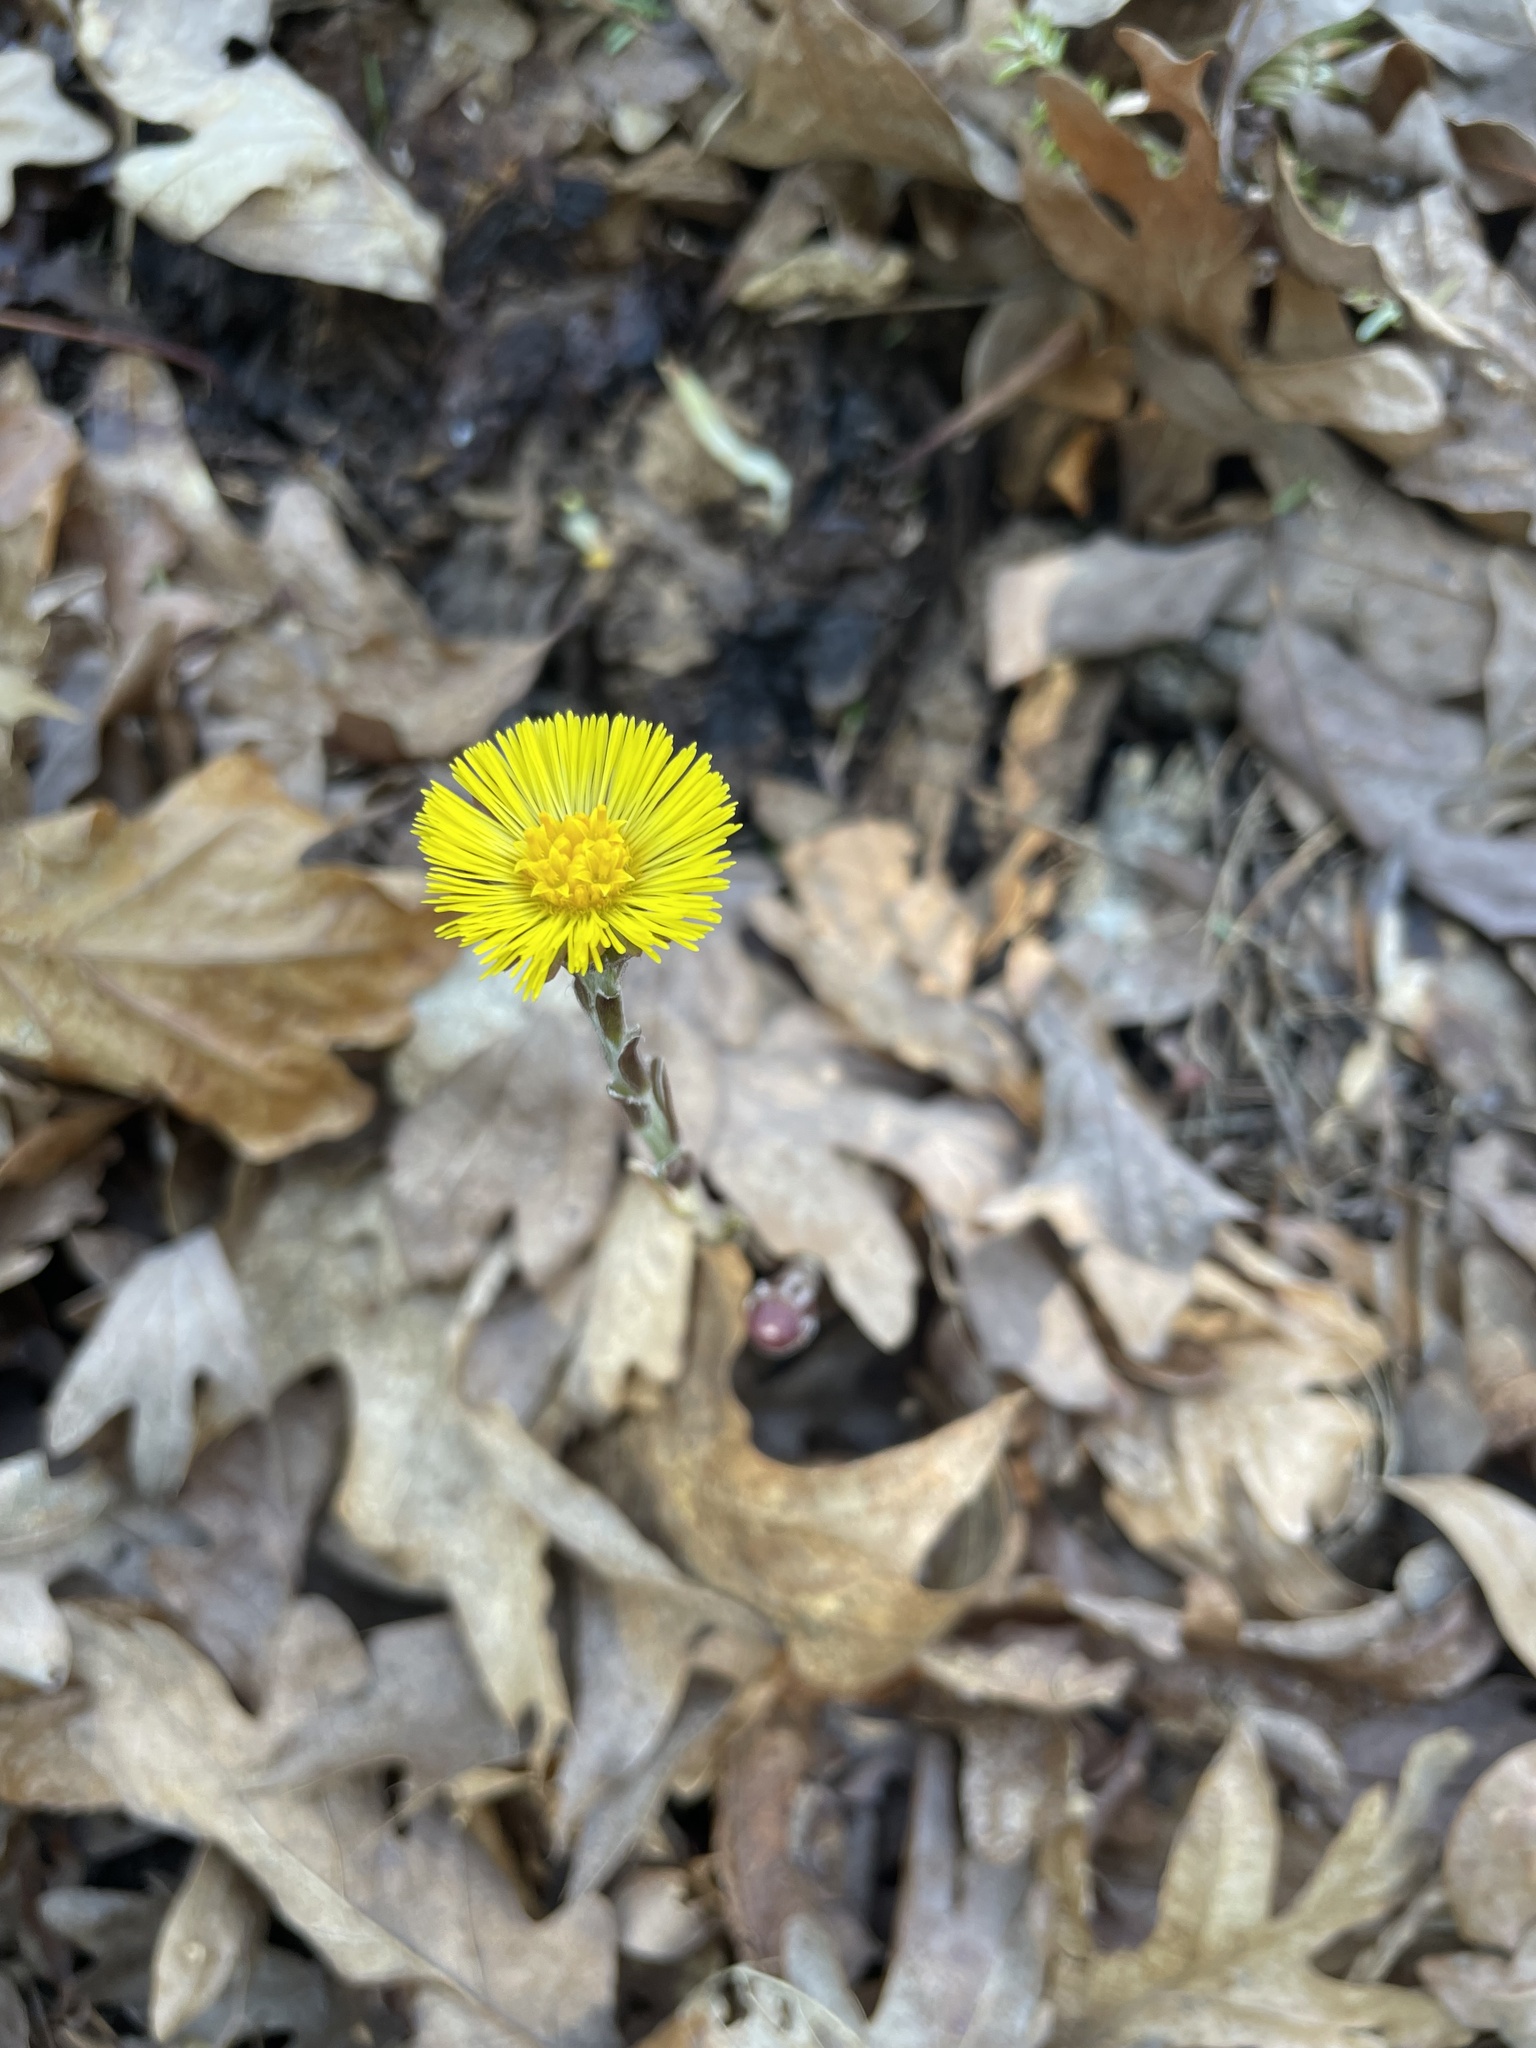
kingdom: Plantae
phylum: Tracheophyta
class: Magnoliopsida
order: Asterales
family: Asteraceae
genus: Tussilago
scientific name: Tussilago farfara
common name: Coltsfoot
